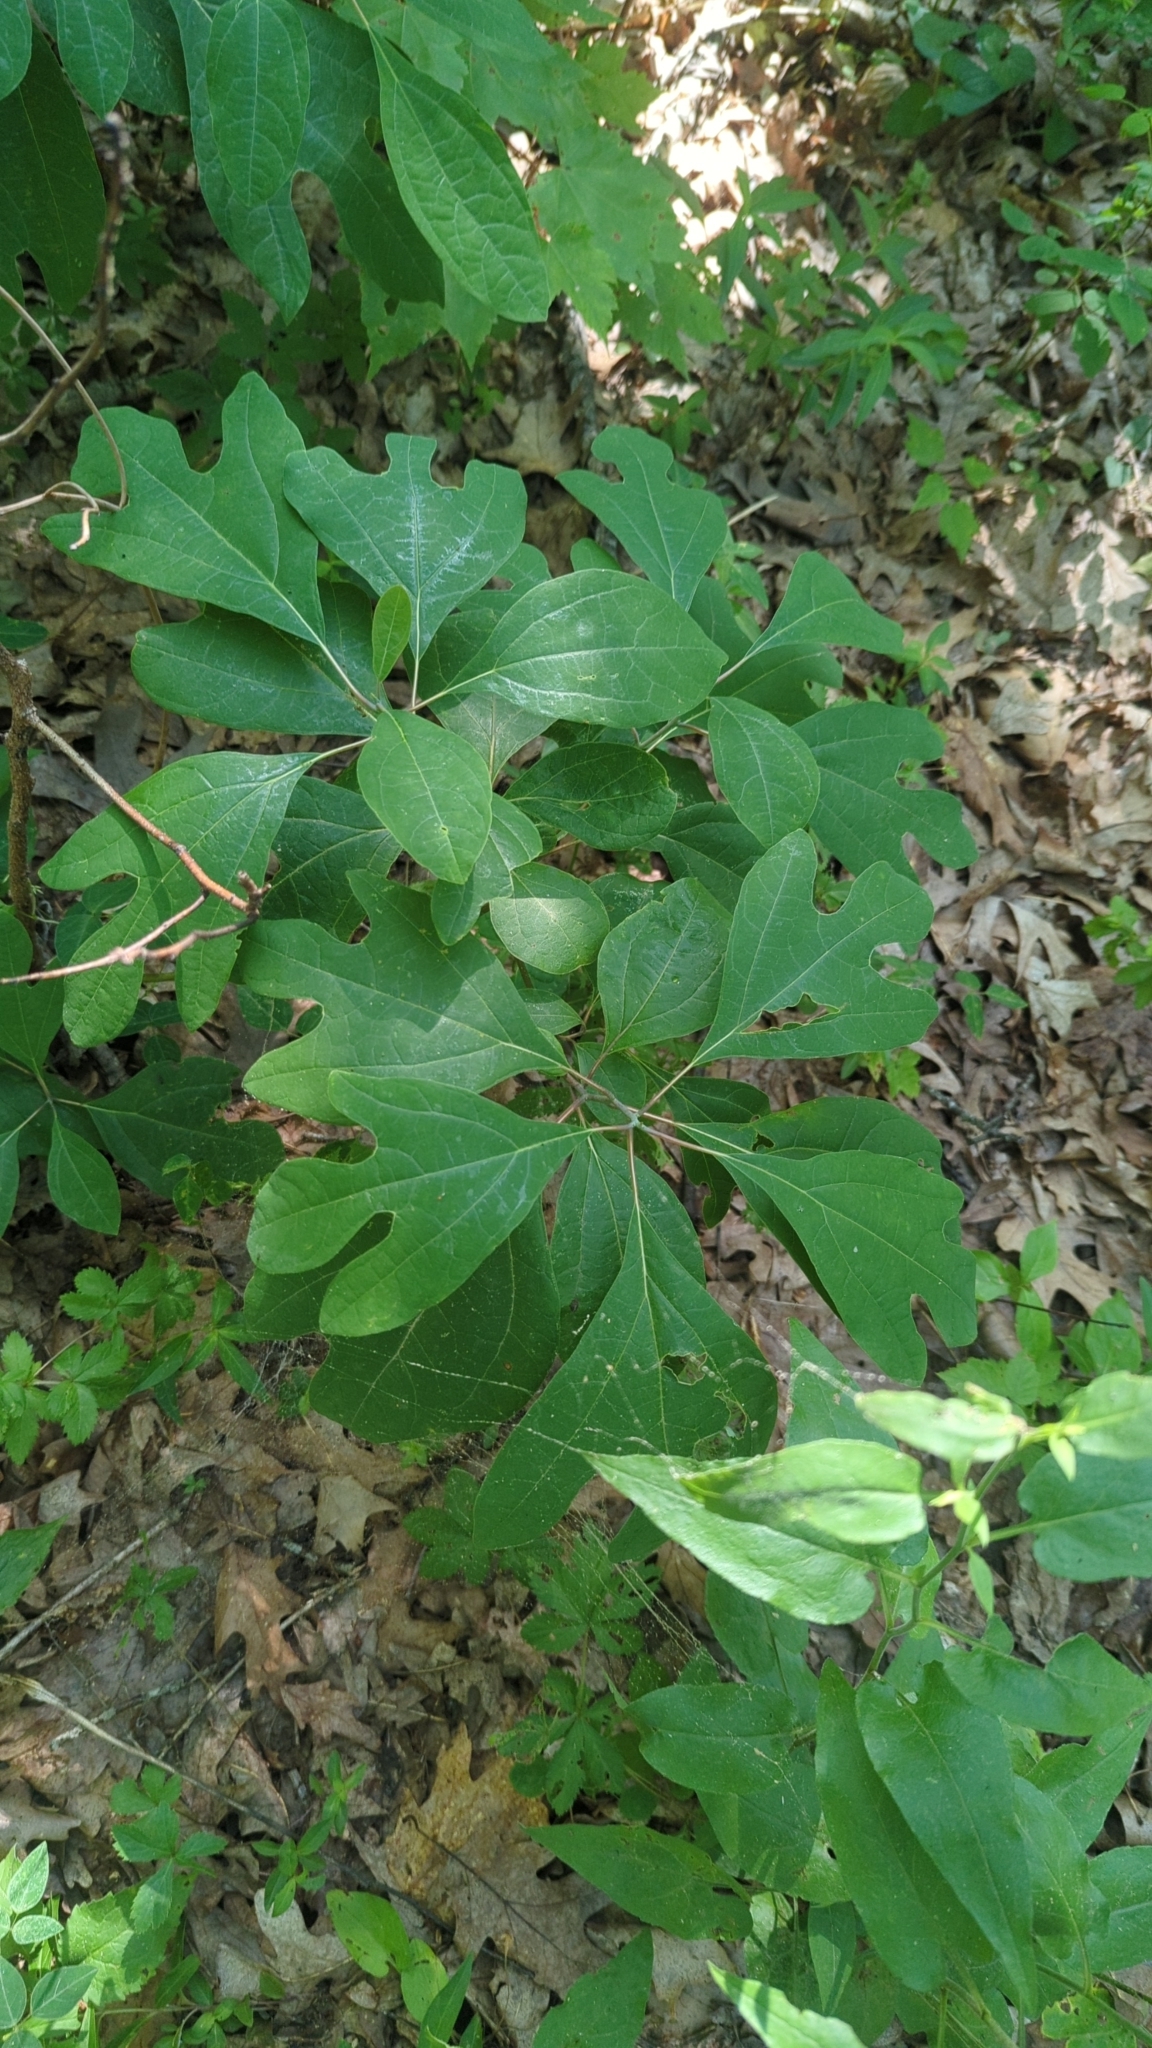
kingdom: Plantae
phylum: Tracheophyta
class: Magnoliopsida
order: Laurales
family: Lauraceae
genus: Sassafras
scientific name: Sassafras albidum
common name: Sassafras
